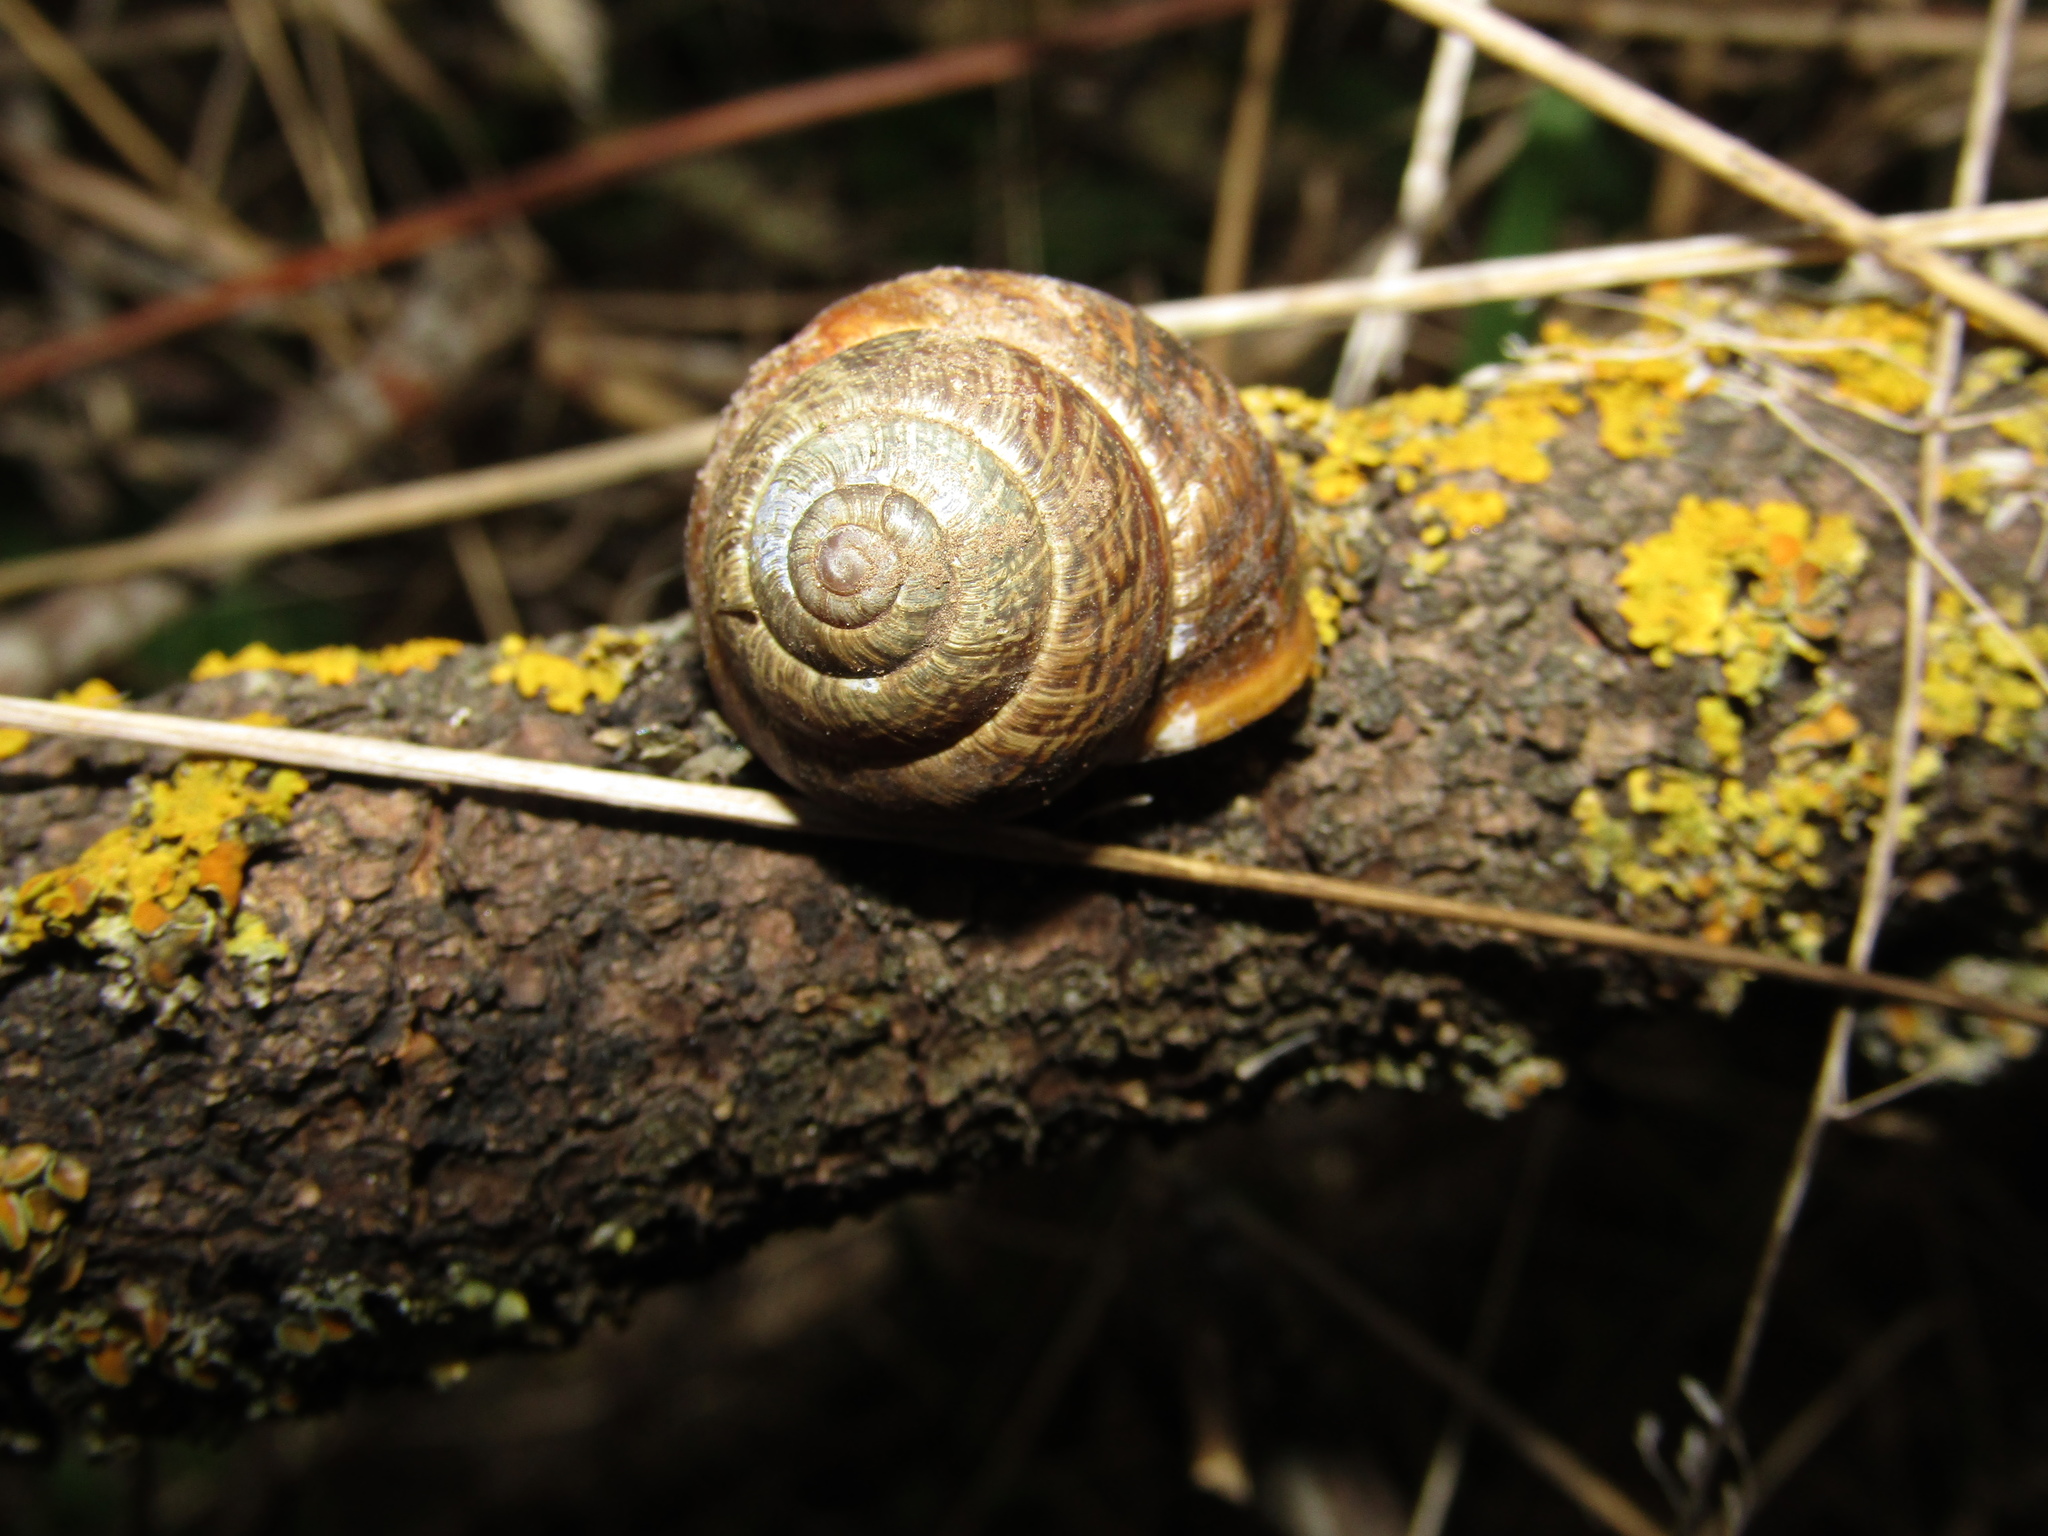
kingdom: Animalia
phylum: Mollusca
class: Gastropoda
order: Stylommatophora
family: Helicidae
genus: Arianta
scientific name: Arianta arbustorum
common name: Copse snail
